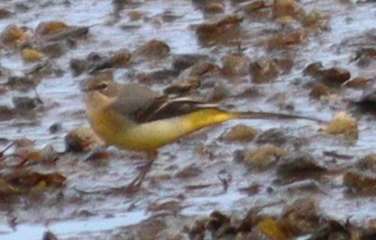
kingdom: Animalia
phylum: Chordata
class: Aves
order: Passeriformes
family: Motacillidae
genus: Motacilla
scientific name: Motacilla cinerea
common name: Grey wagtail
